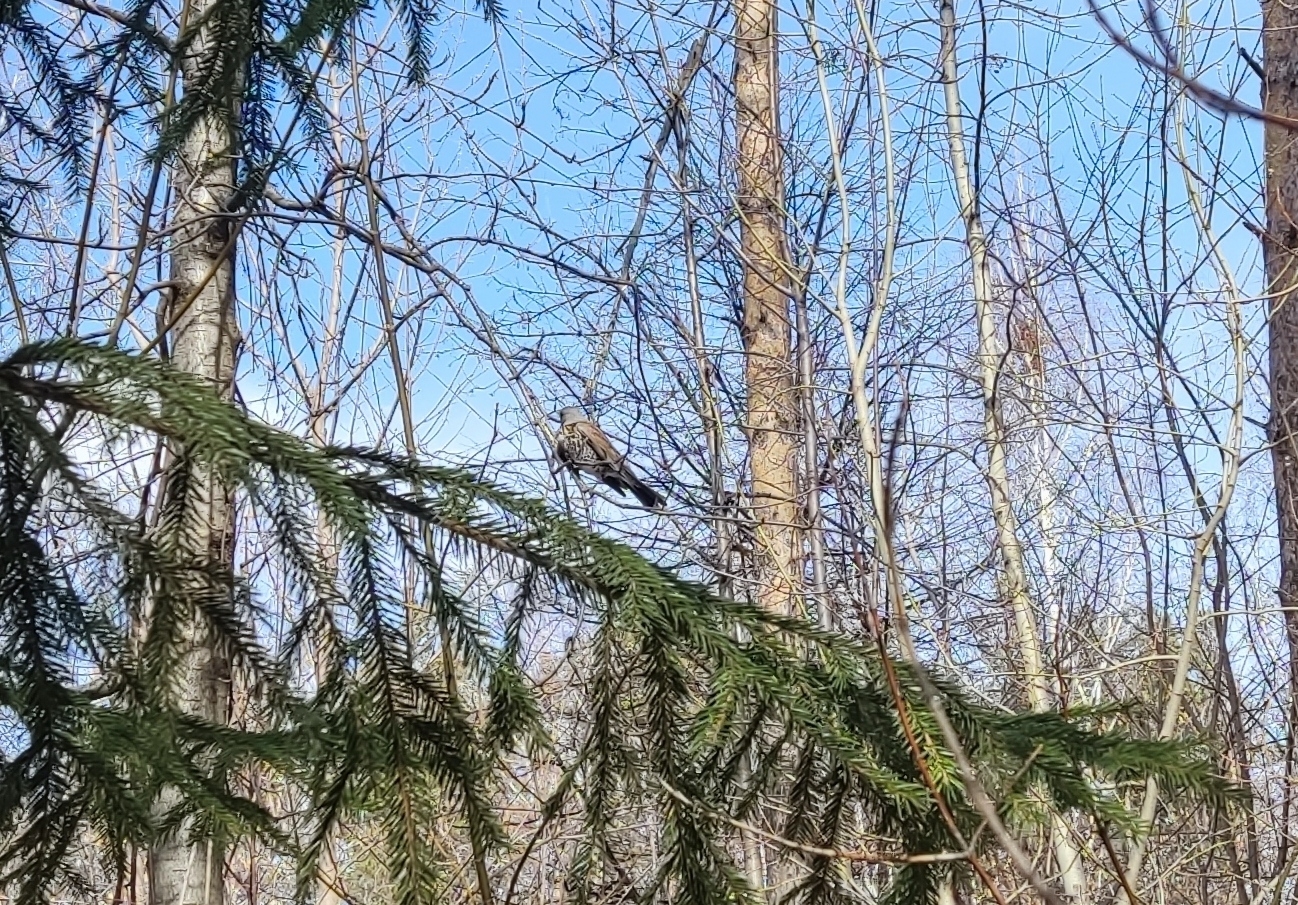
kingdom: Animalia
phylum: Chordata
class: Aves
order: Passeriformes
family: Turdidae
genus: Turdus
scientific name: Turdus pilaris
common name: Fieldfare
